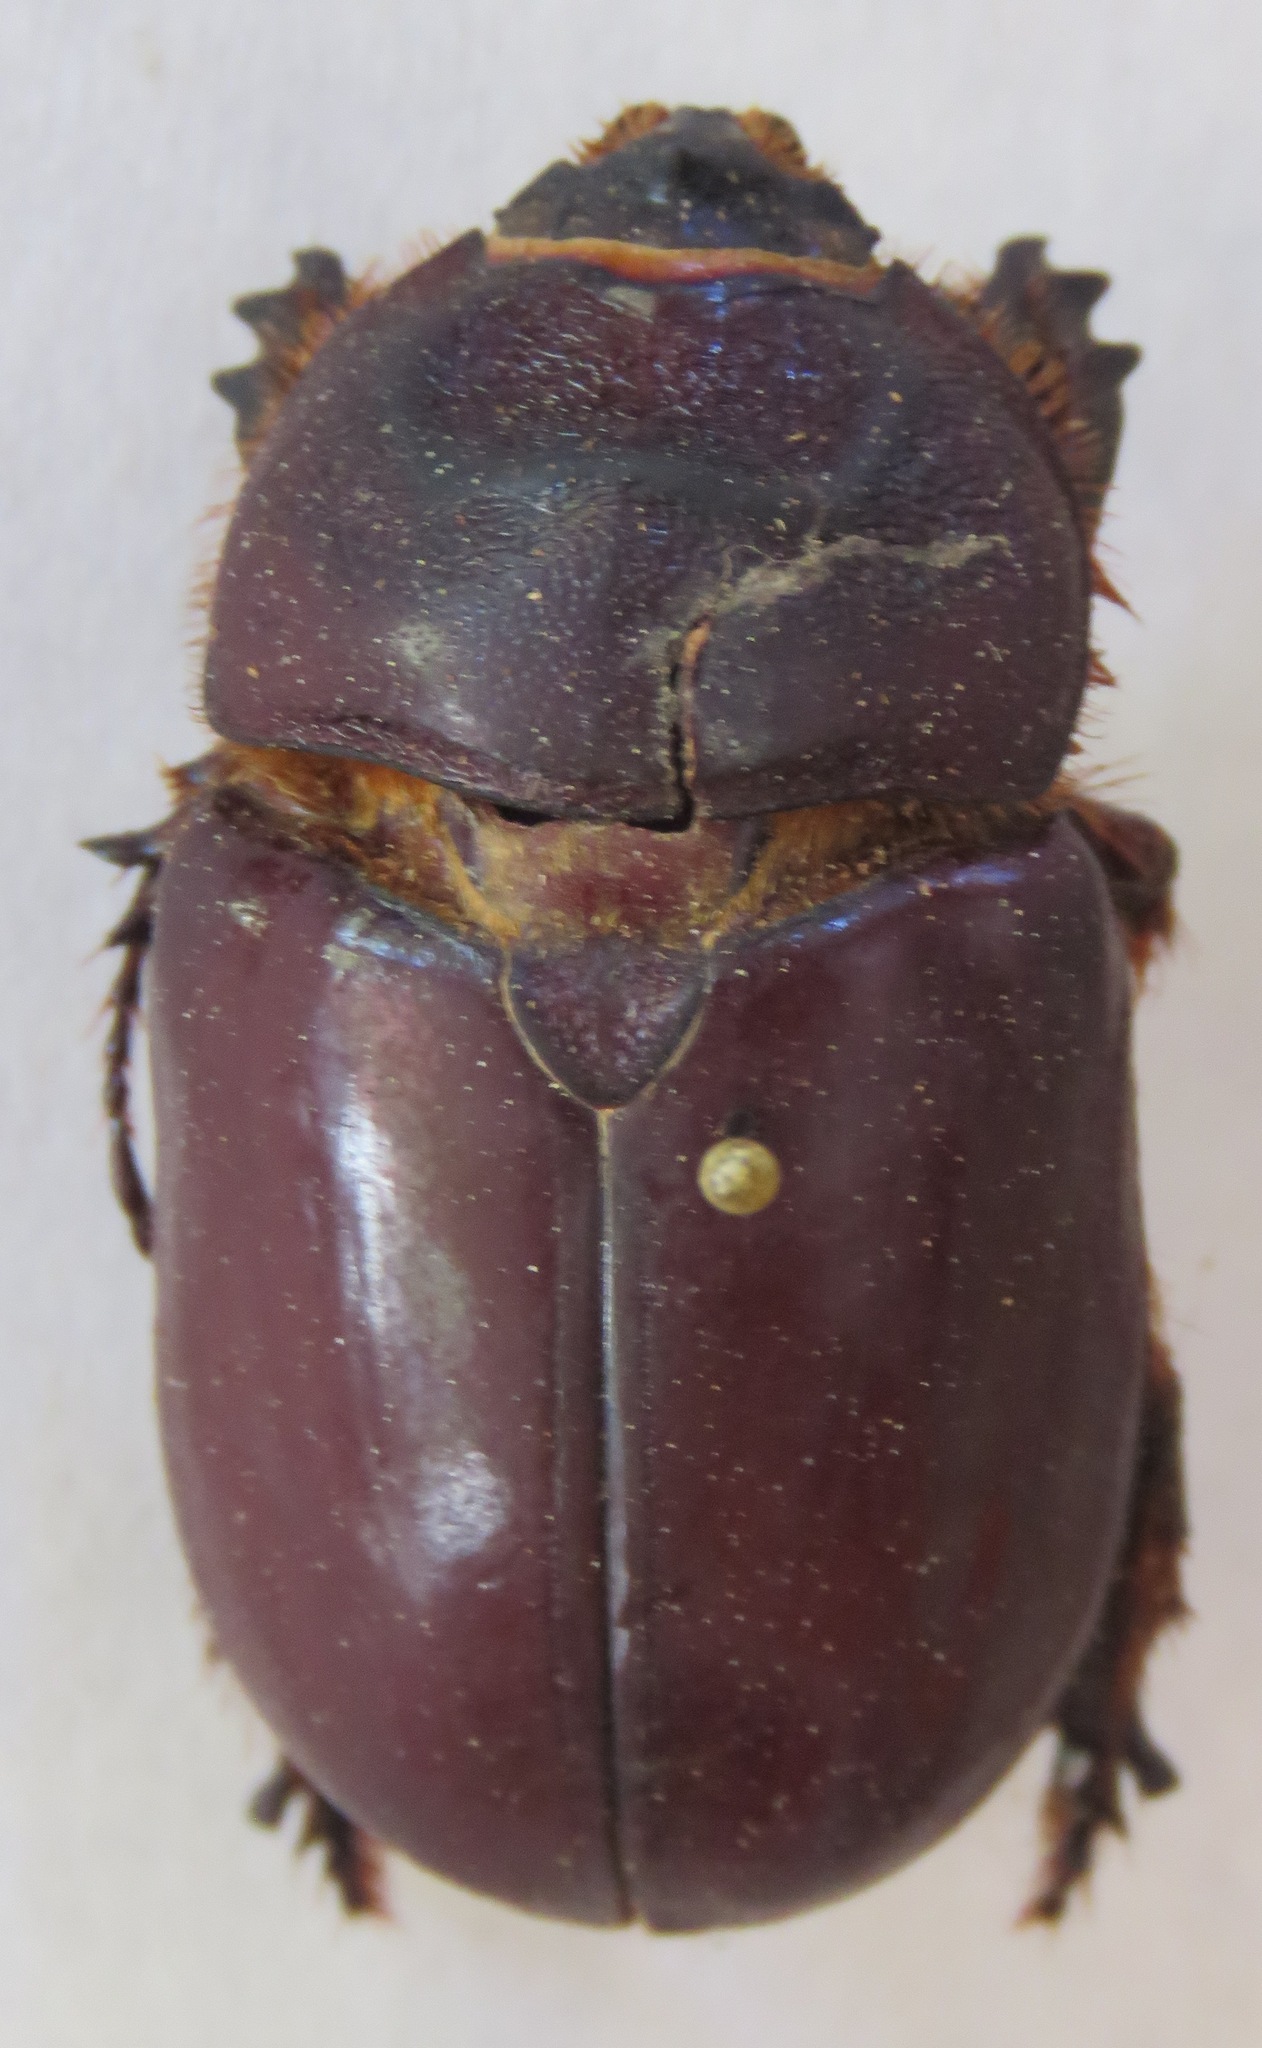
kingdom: Animalia
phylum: Arthropoda
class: Insecta
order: Coleoptera
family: Scarabaeidae
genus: Oryctes
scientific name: Oryctes nasicornis
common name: European rhinoceros beetle
